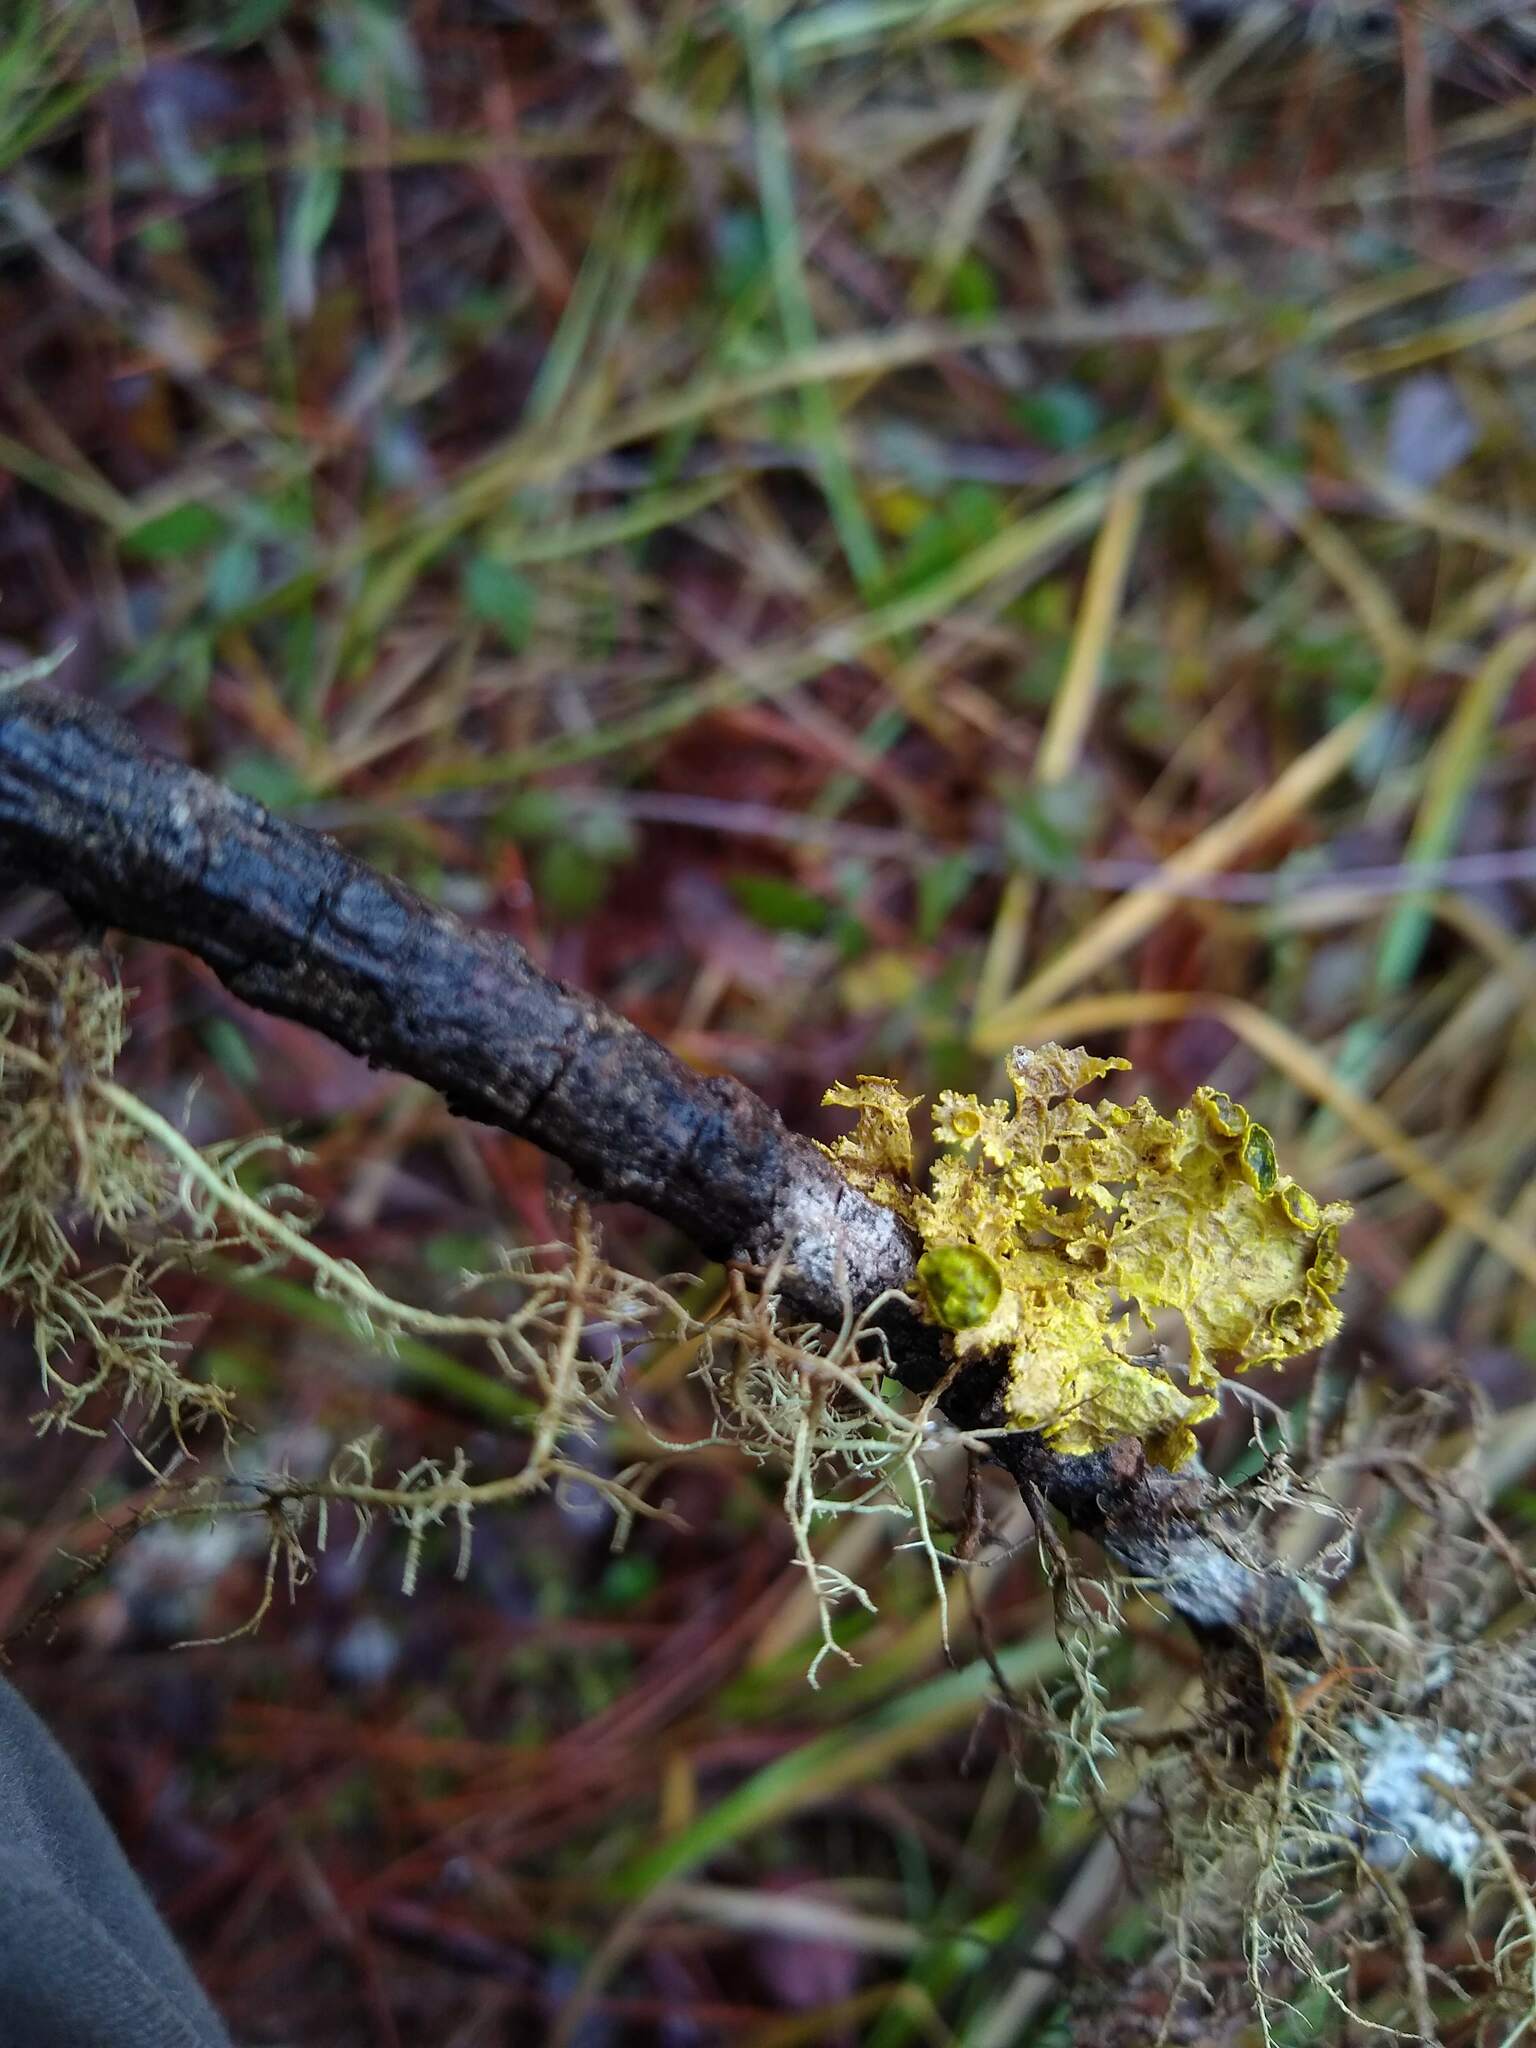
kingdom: Fungi
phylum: Ascomycota
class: Lecanoromycetes
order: Lecanorales
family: Parmeliaceae
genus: Vulpicida
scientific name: Vulpicida canadensis
